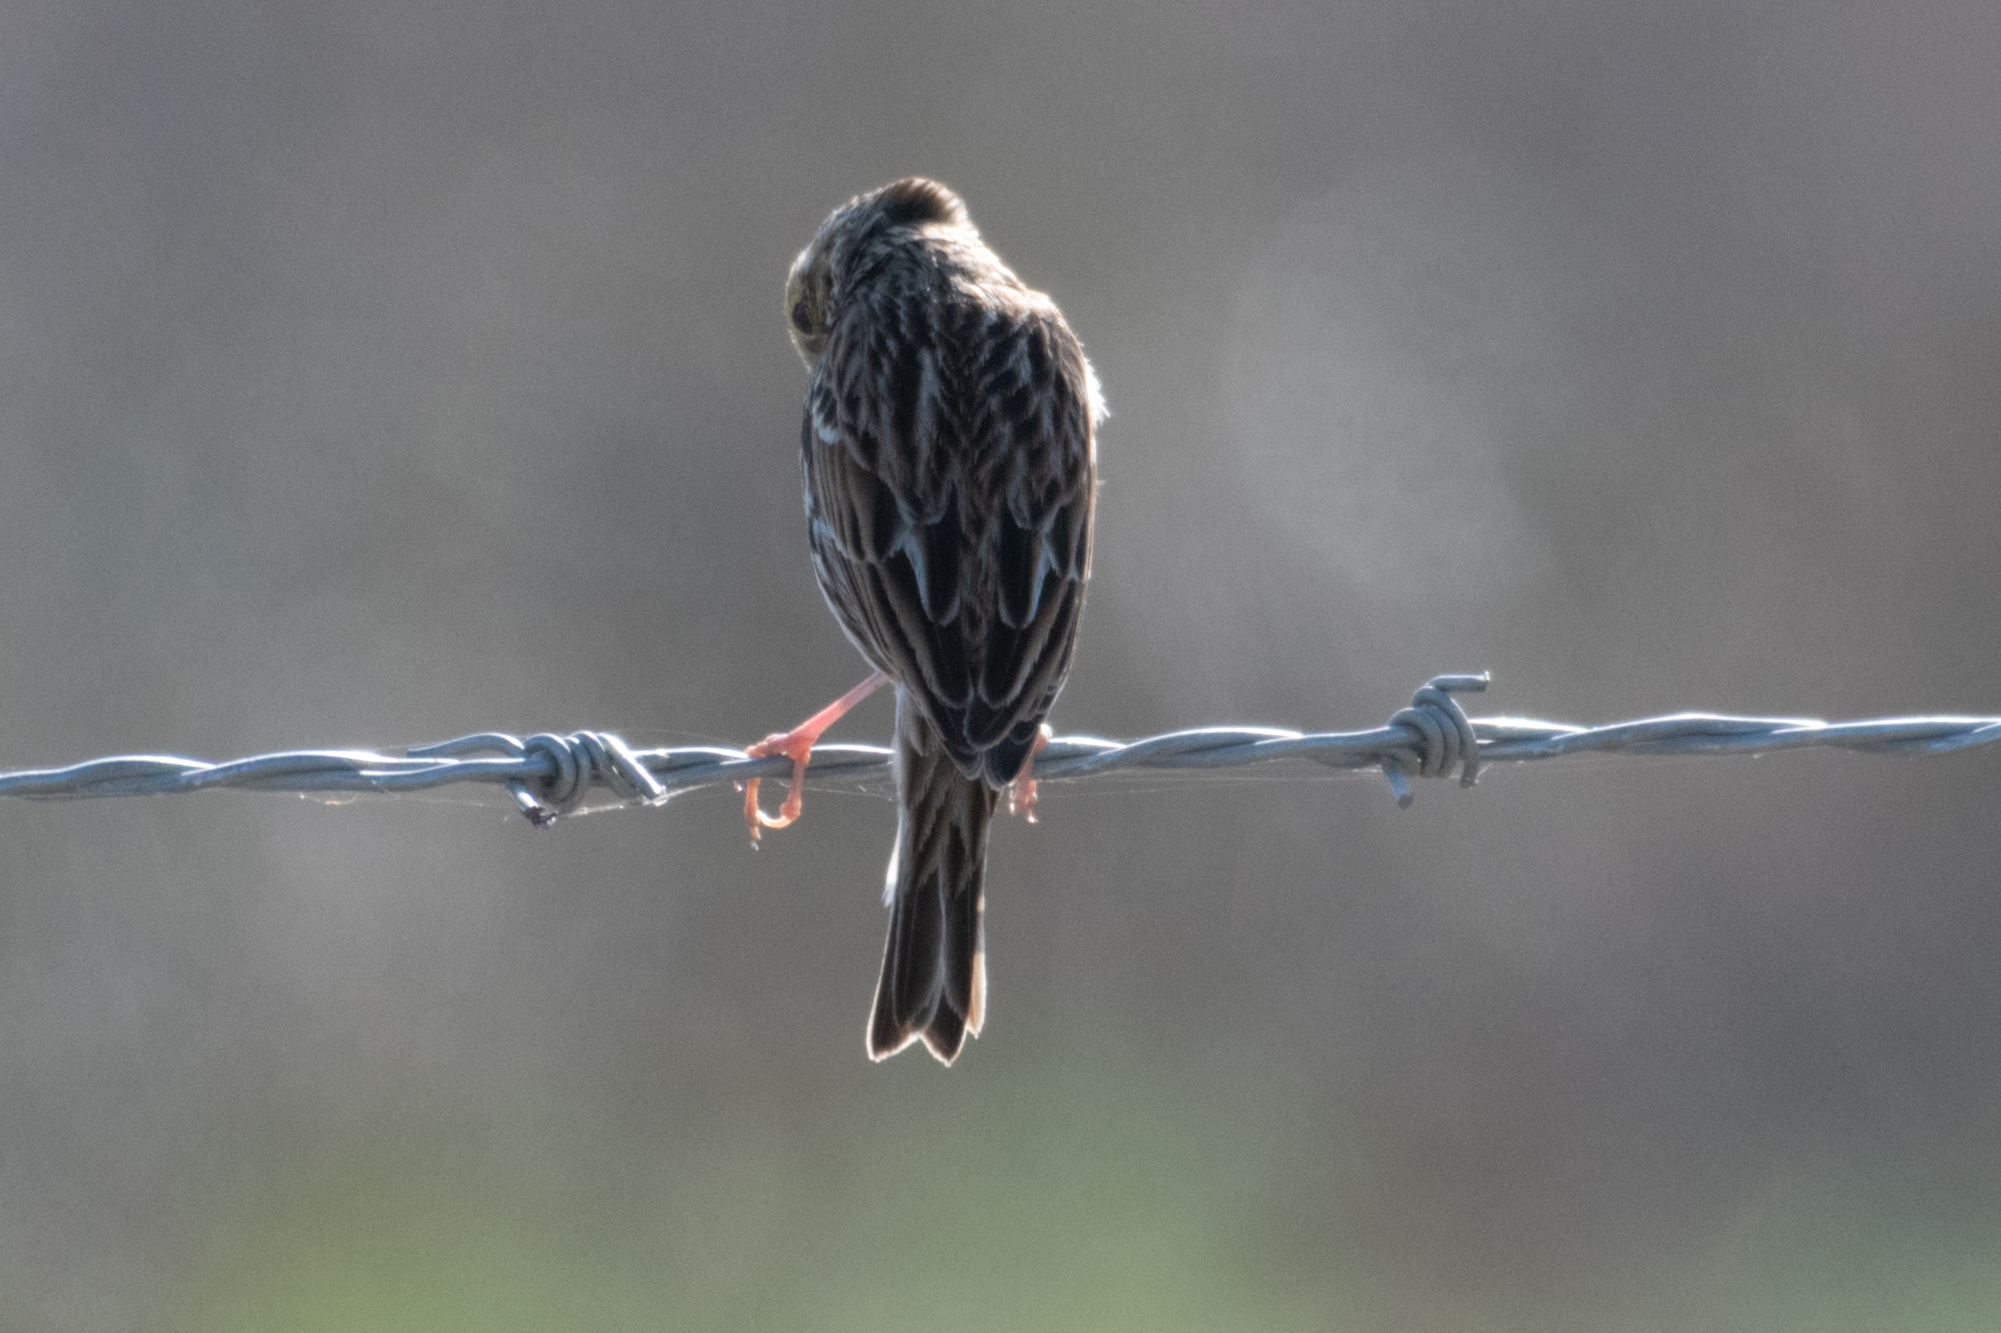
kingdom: Animalia
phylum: Chordata
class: Aves
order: Passeriformes
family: Passerellidae
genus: Passerculus
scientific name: Passerculus sandwichensis
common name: Savannah sparrow
